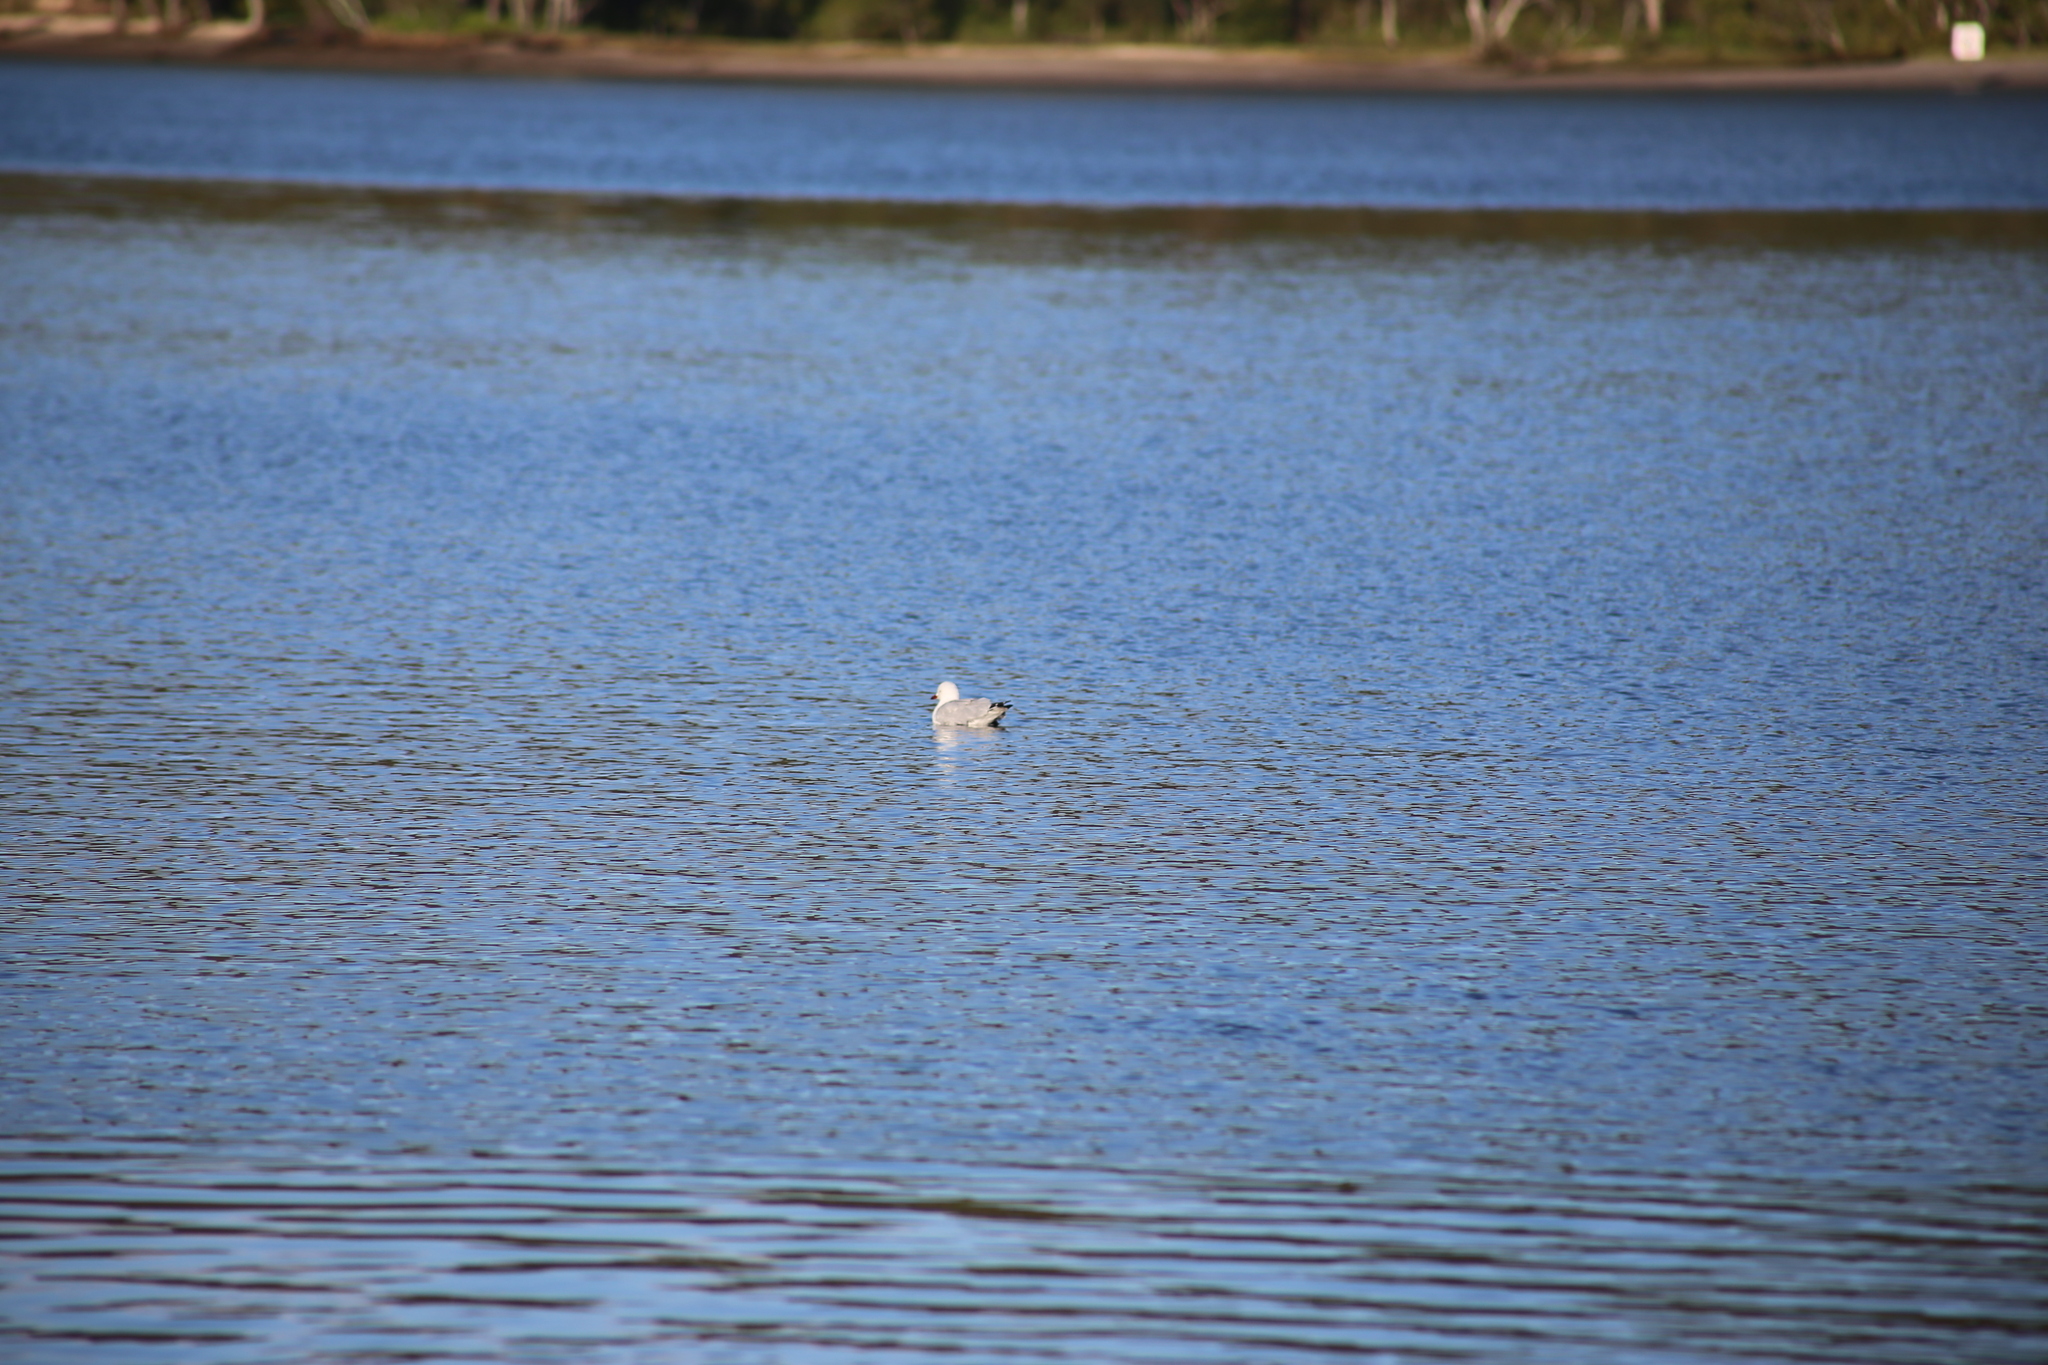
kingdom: Animalia
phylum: Chordata
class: Aves
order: Charadriiformes
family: Laridae
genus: Chroicocephalus
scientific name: Chroicocephalus novaehollandiae
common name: Silver gull
